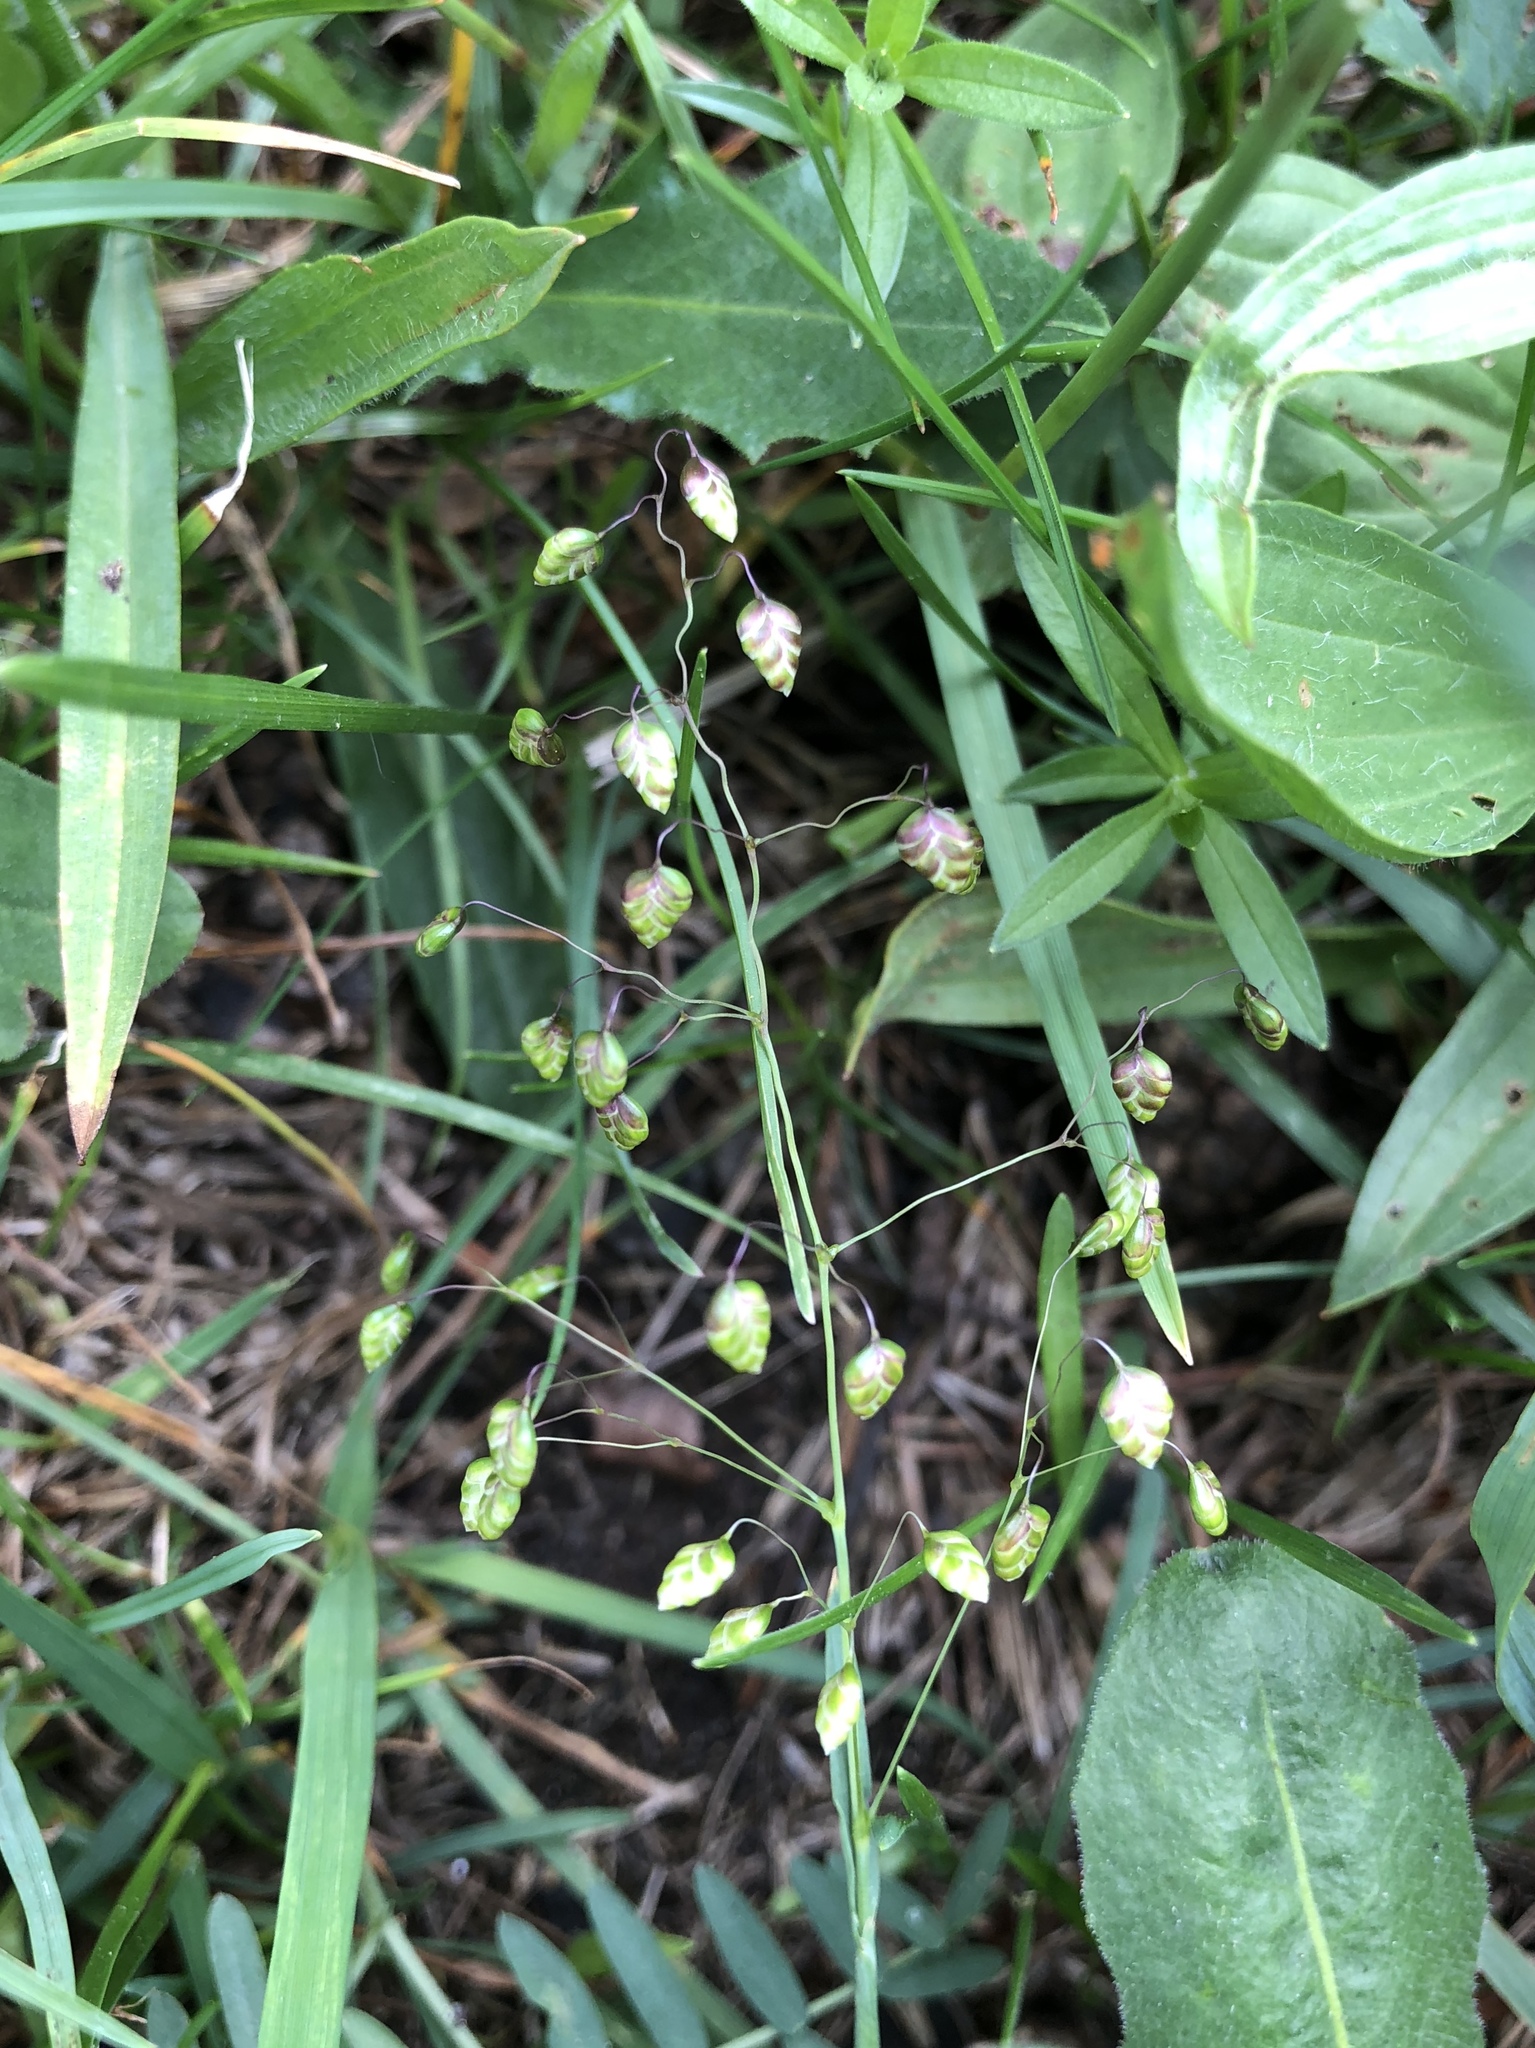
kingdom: Plantae
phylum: Tracheophyta
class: Liliopsida
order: Poales
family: Poaceae
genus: Briza
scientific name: Briza media
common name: Quaking grass
